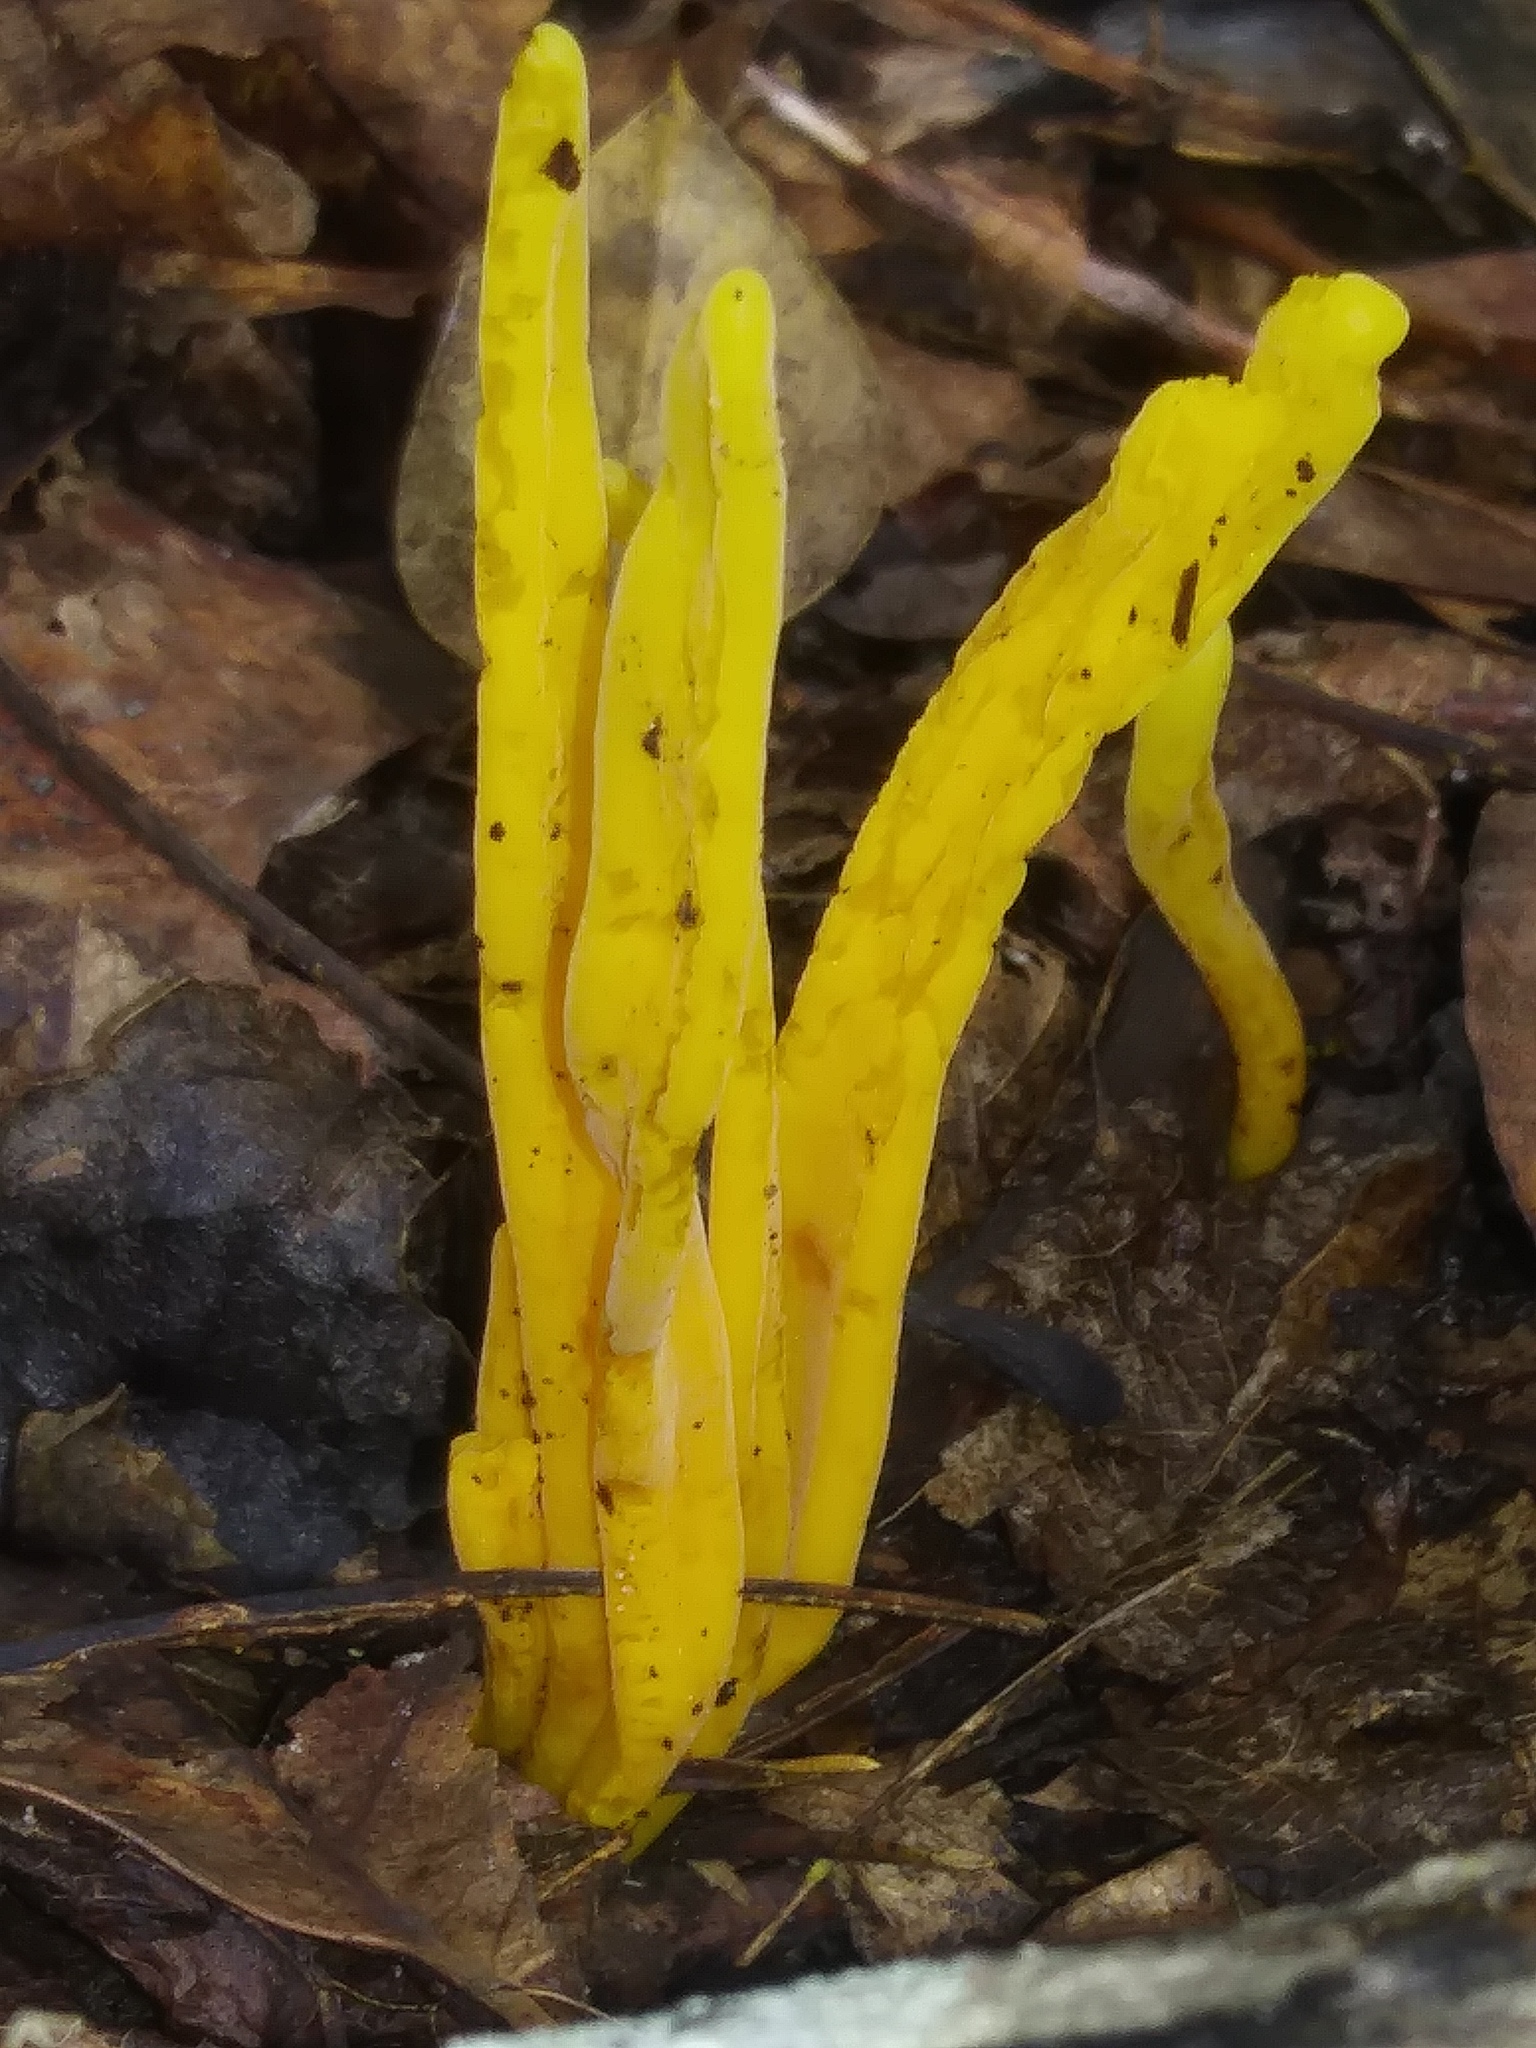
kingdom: Fungi
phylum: Basidiomycota
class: Agaricomycetes
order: Agaricales
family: Clavariaceae
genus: Clavulinopsis
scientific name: Clavulinopsis fusiformis
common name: Golden spindles
